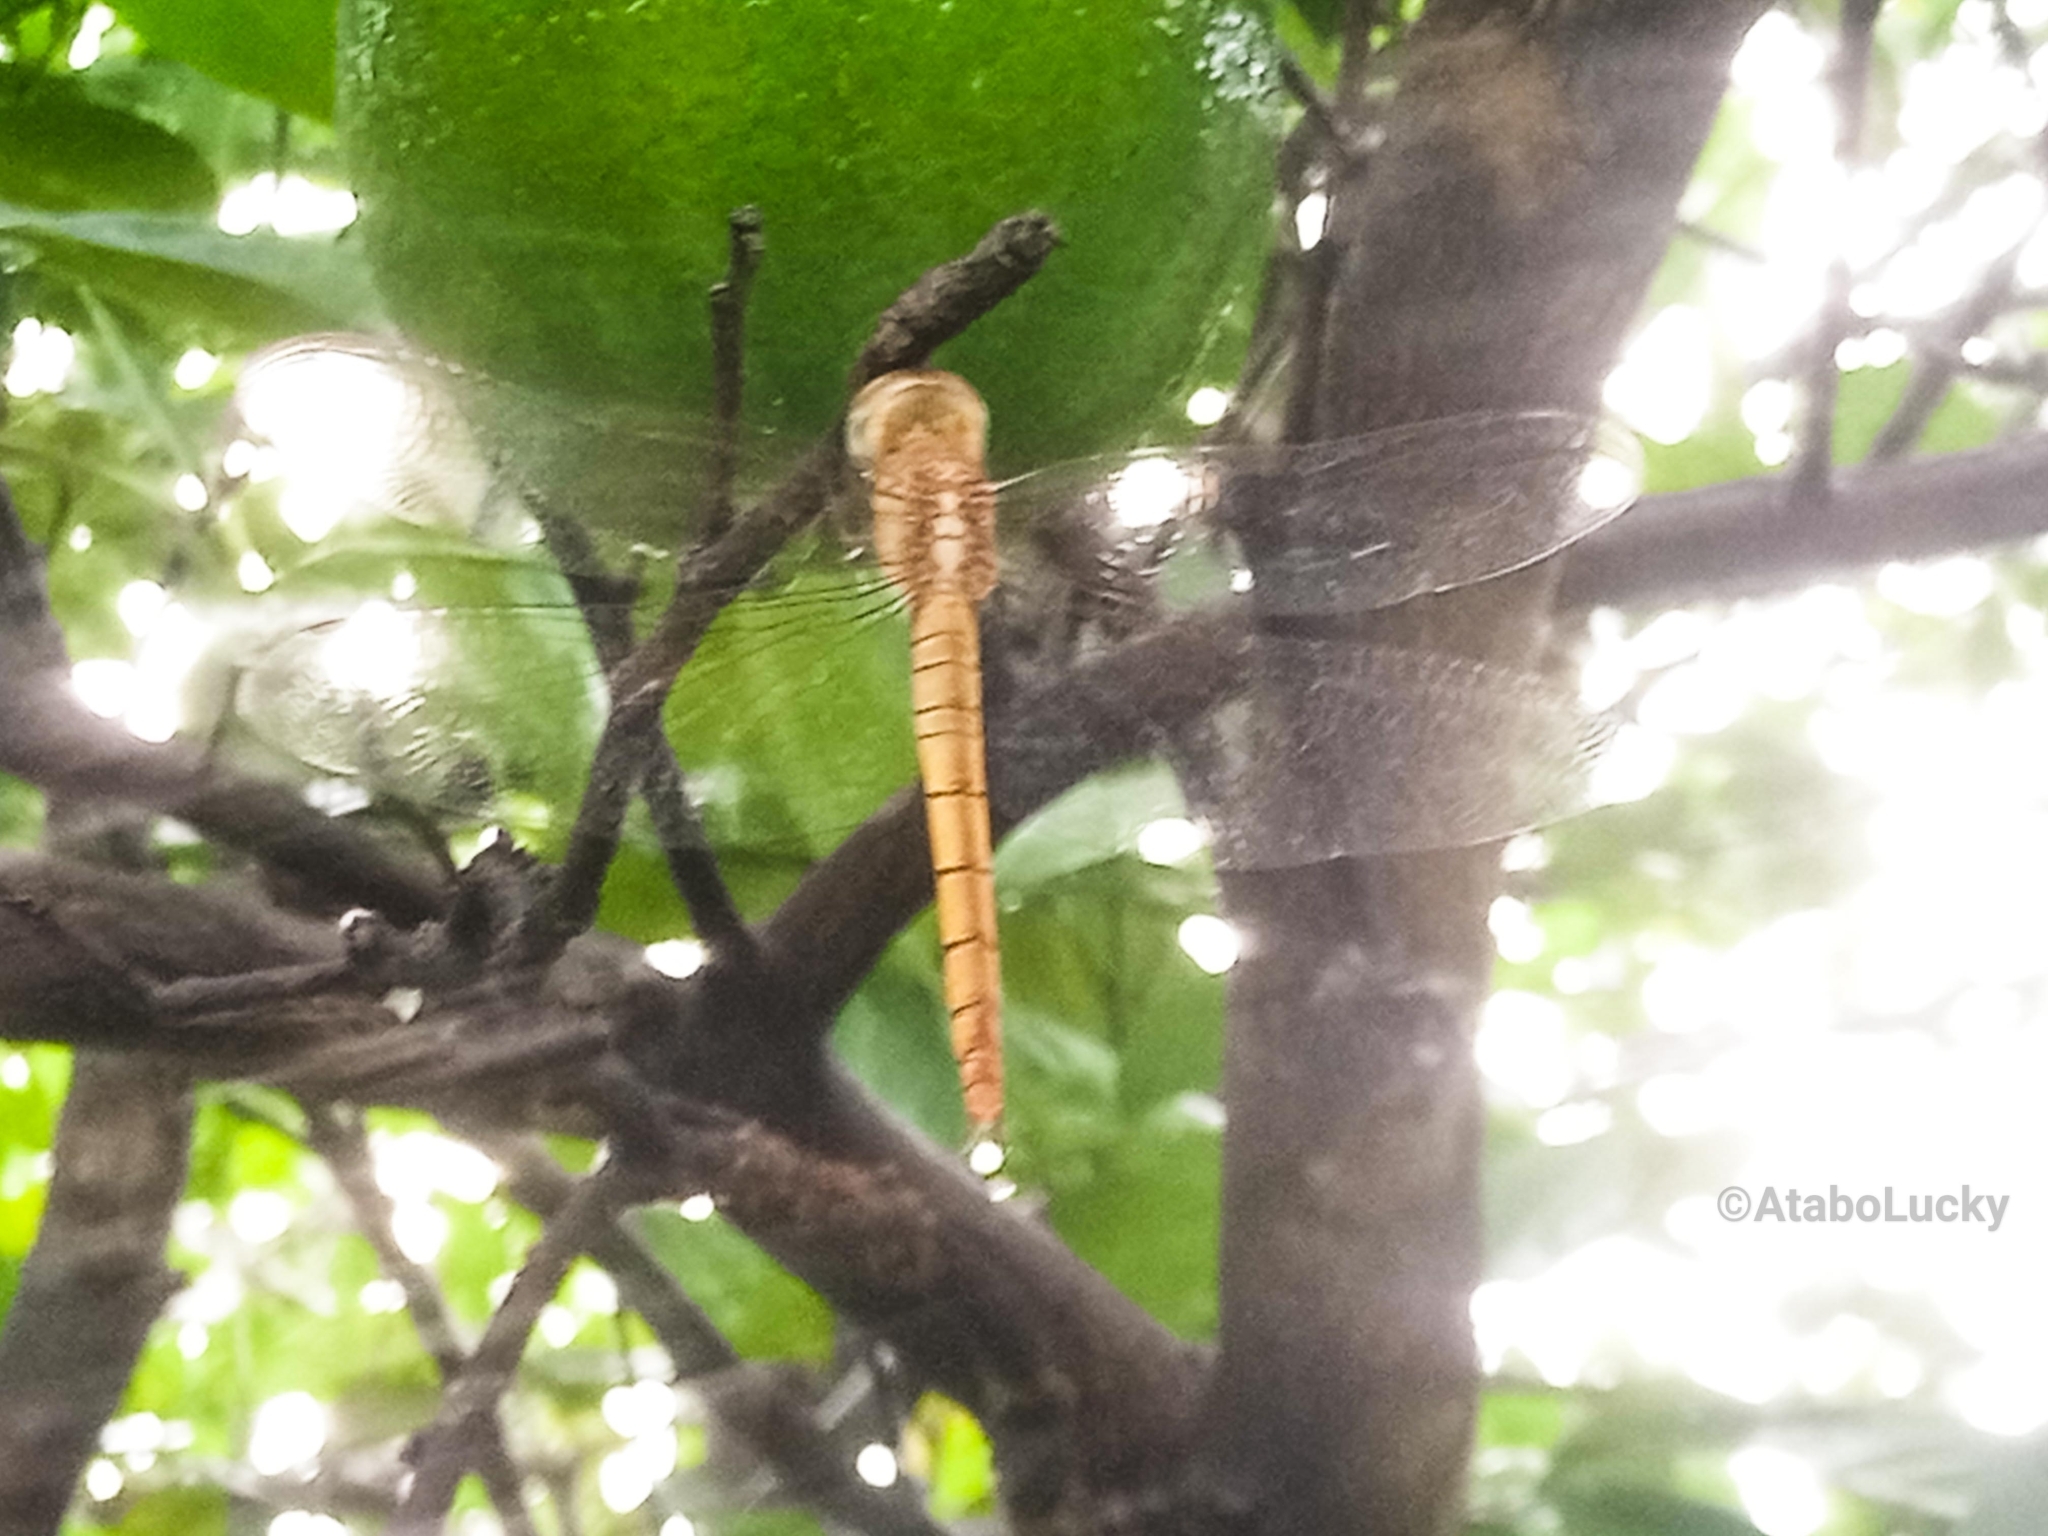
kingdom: Animalia
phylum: Arthropoda
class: Insecta
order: Odonata
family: Libellulidae
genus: Tholymis
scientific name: Tholymis tillarga
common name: Coral-tailed cloud wing
